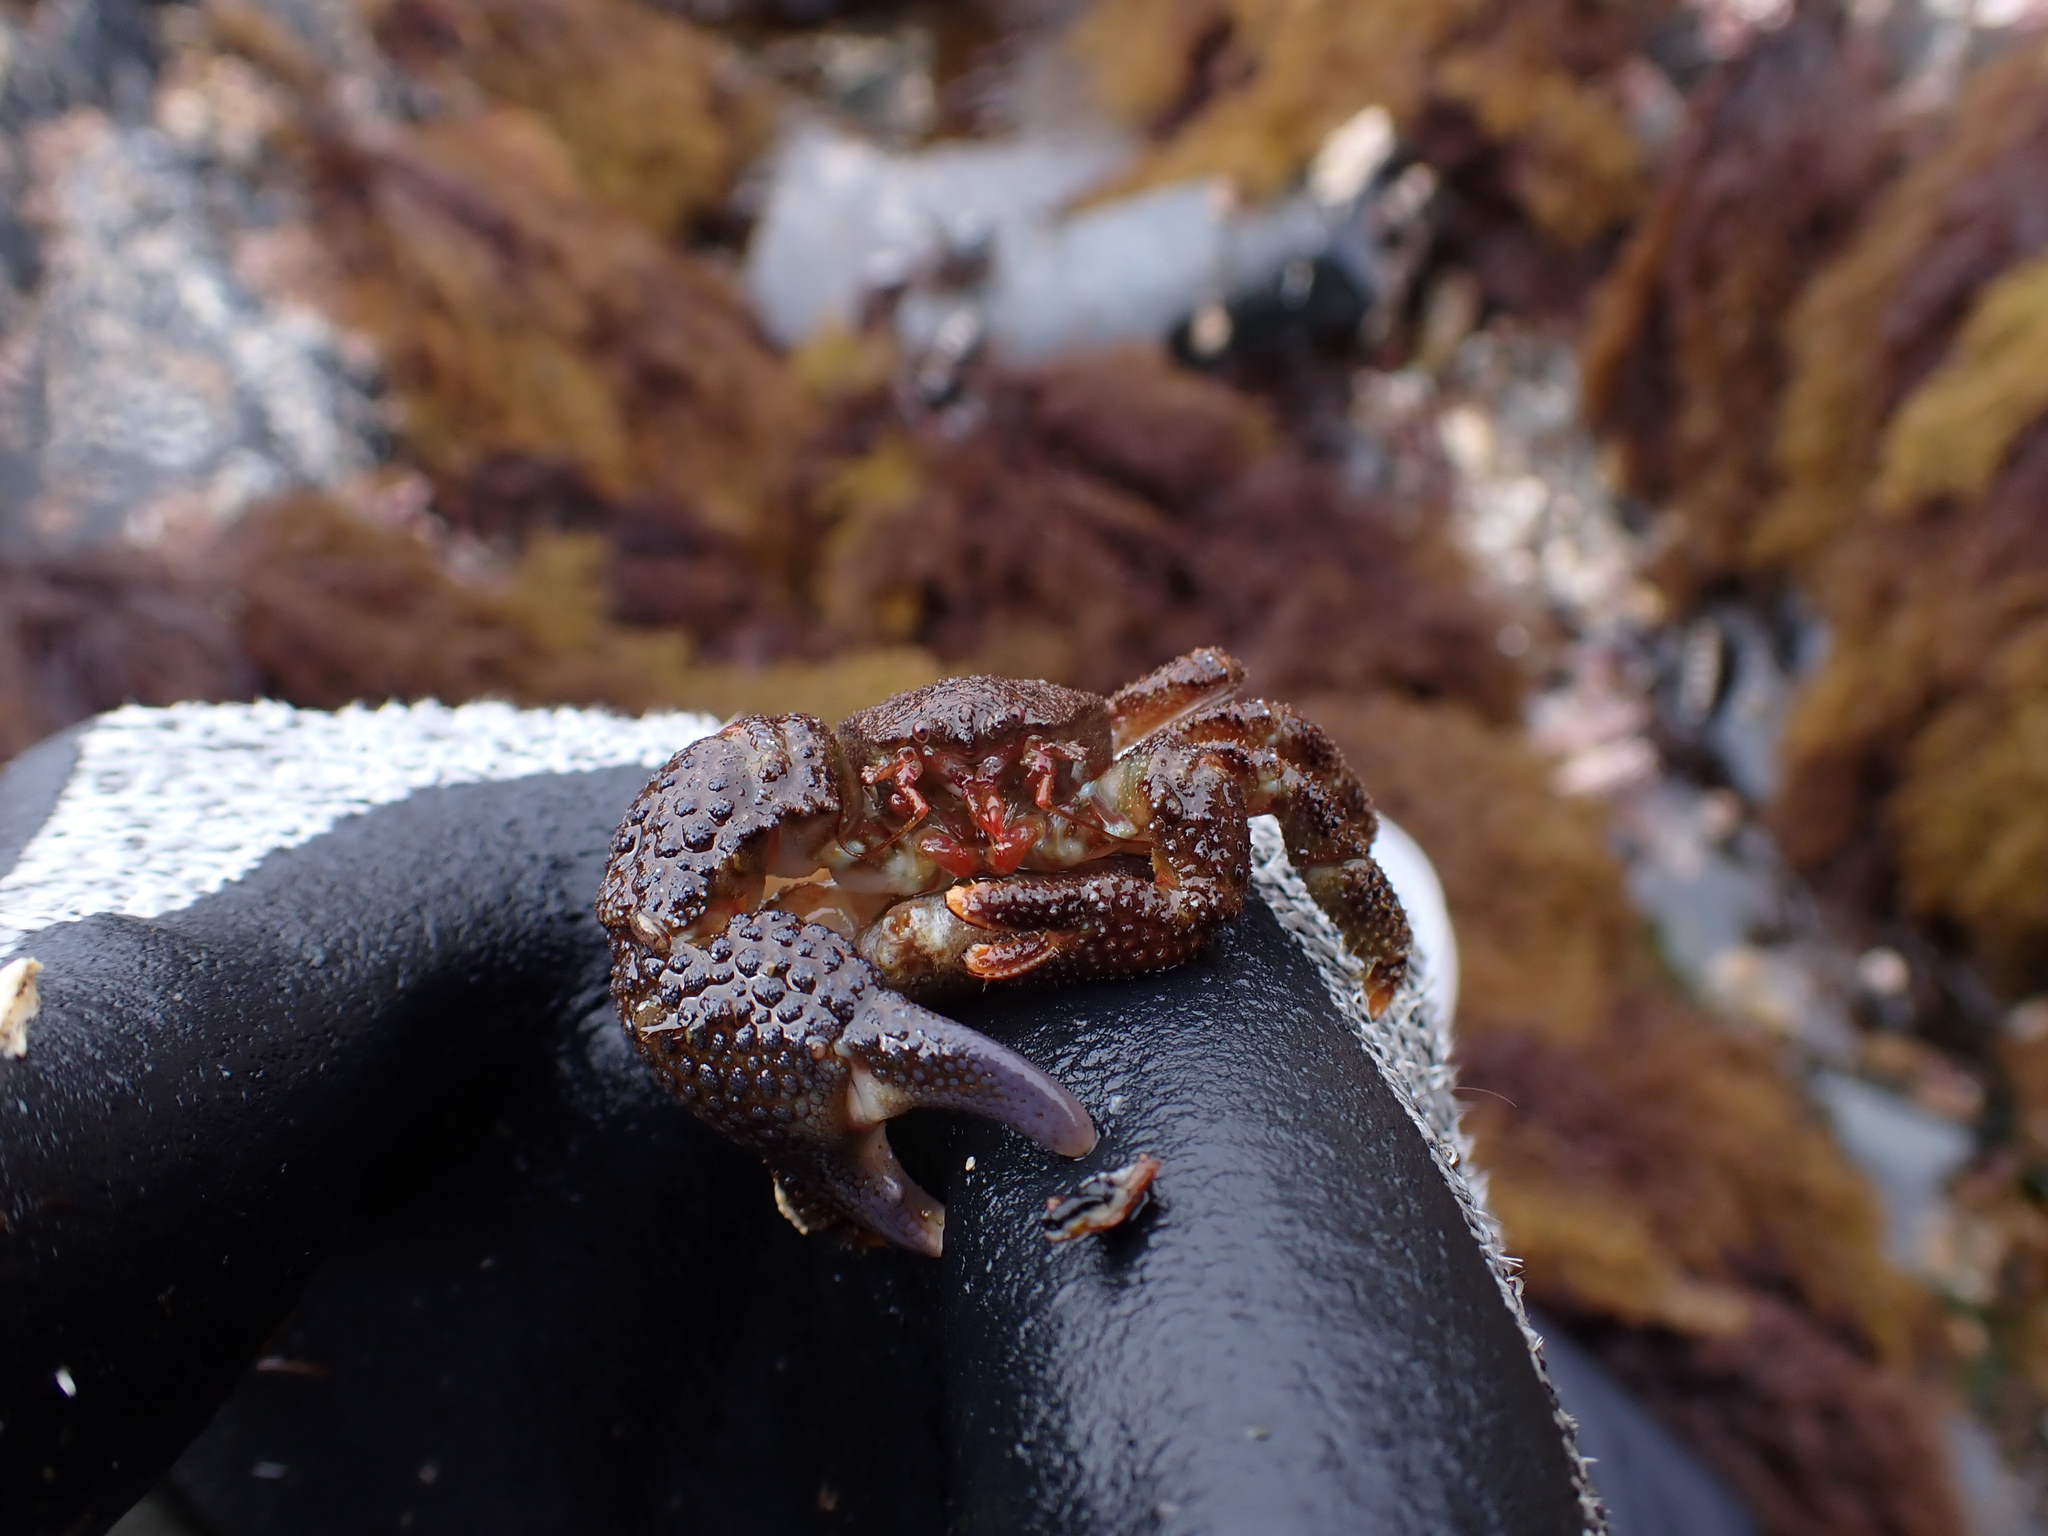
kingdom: Animalia
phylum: Arthropoda
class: Malacostraca
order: Decapoda
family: Hapalogastridae
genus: Oedignathus
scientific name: Oedignathus inermis
